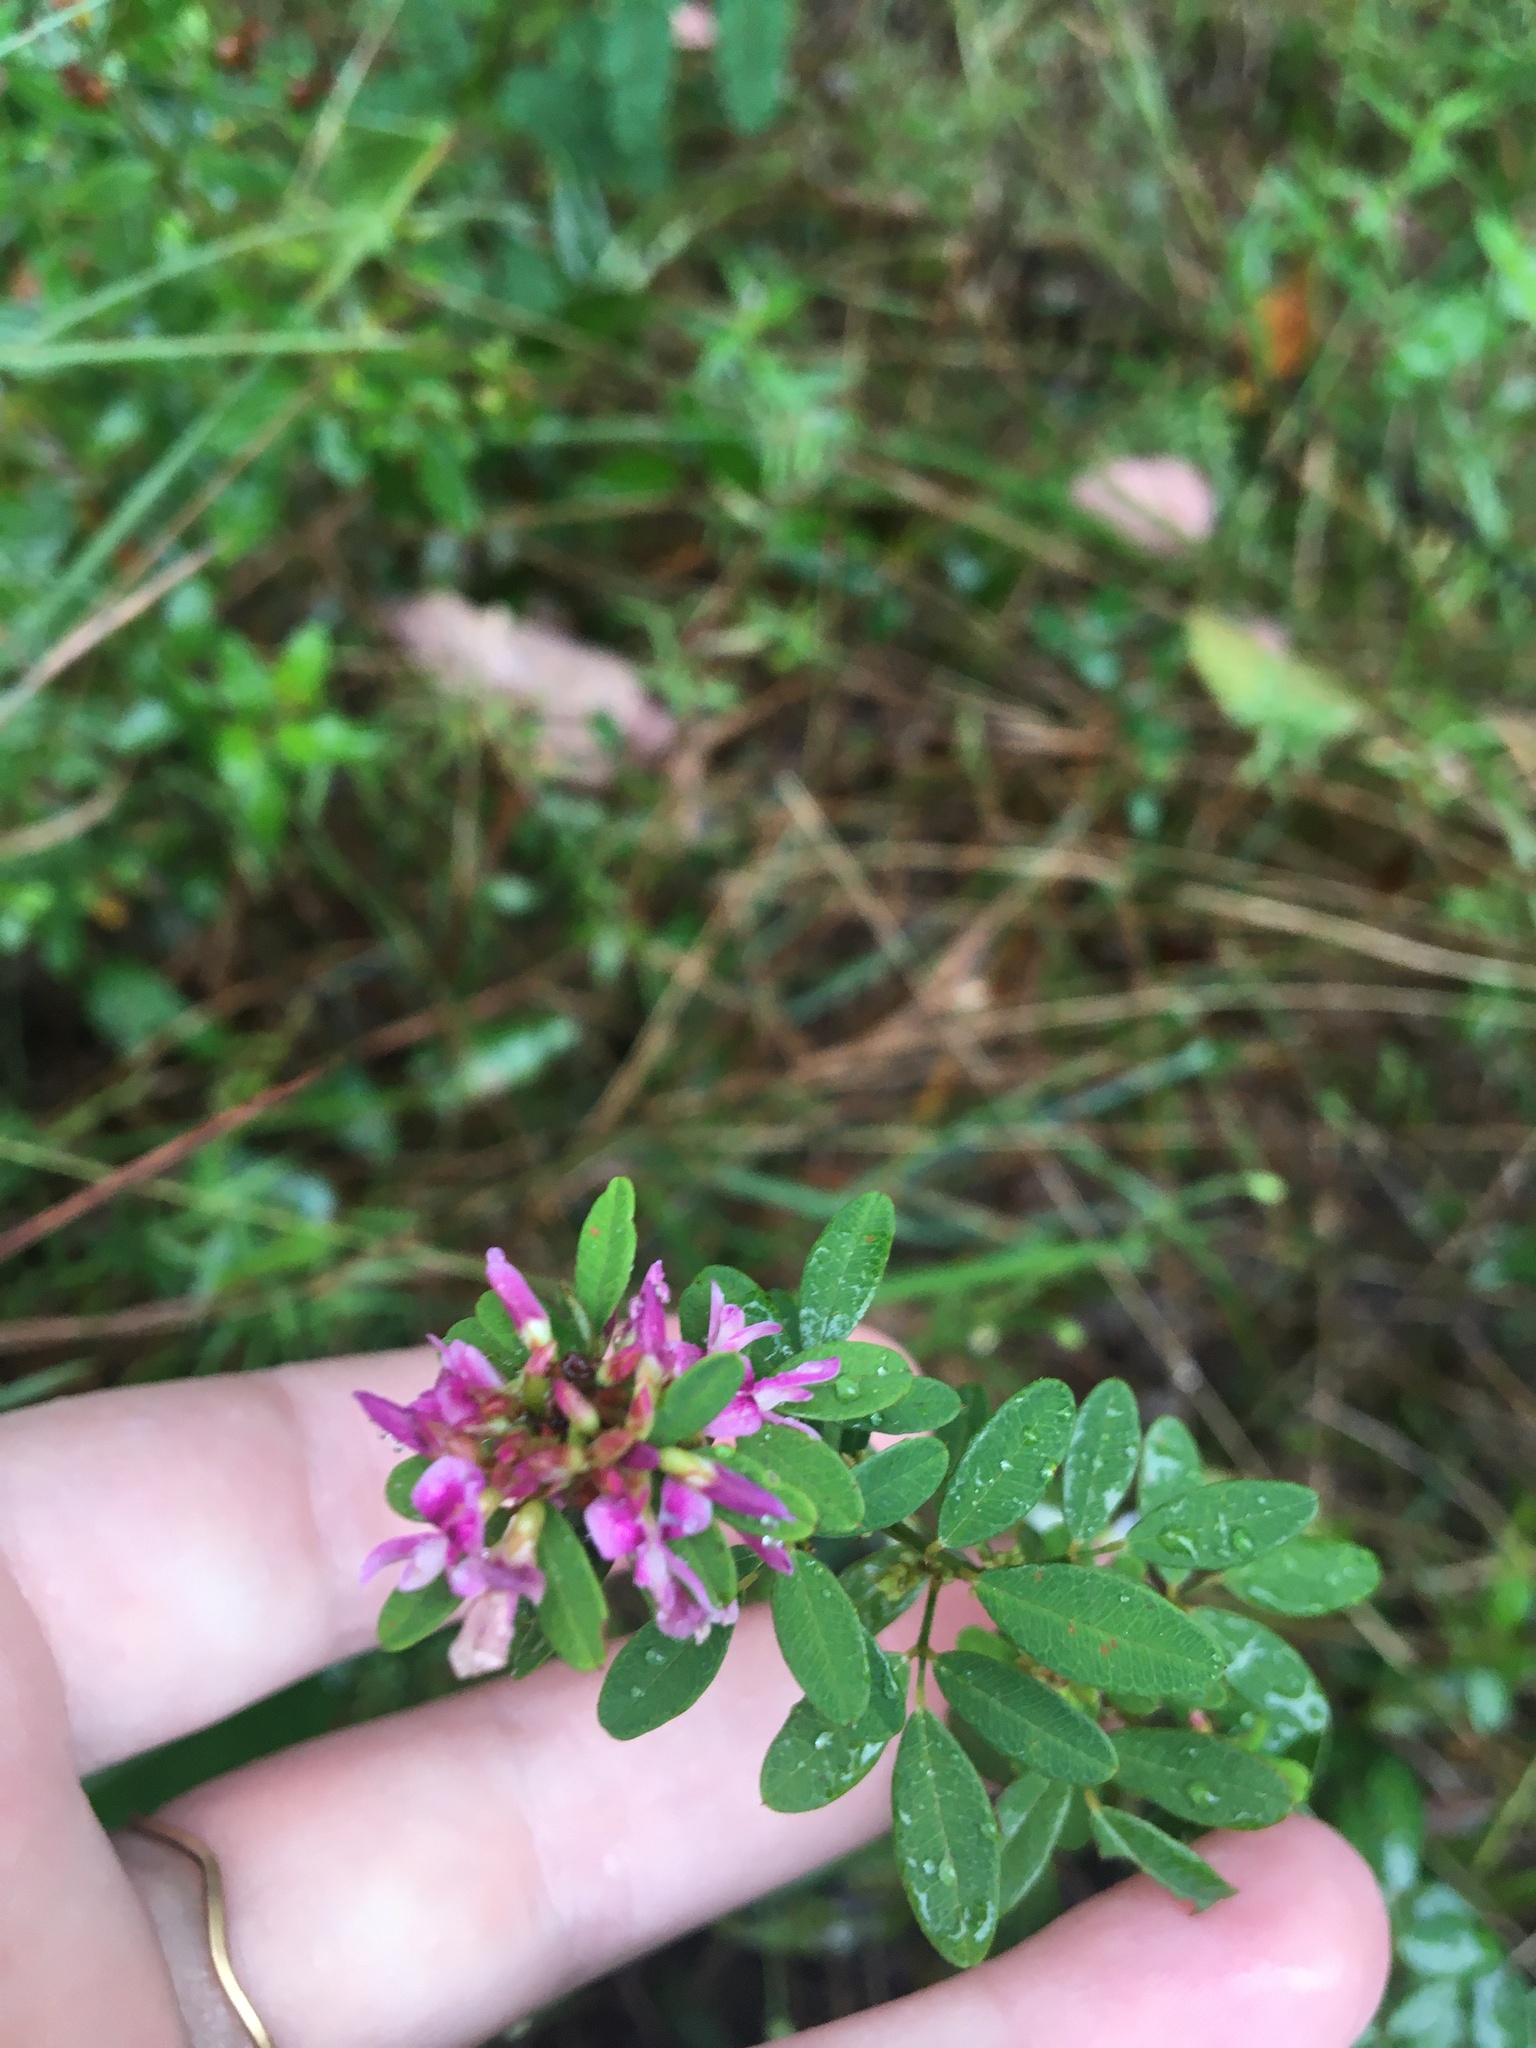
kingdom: Plantae
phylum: Tracheophyta
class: Magnoliopsida
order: Fabales
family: Fabaceae
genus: Lespedeza
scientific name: Lespedeza violacea
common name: Wand bush-clover
